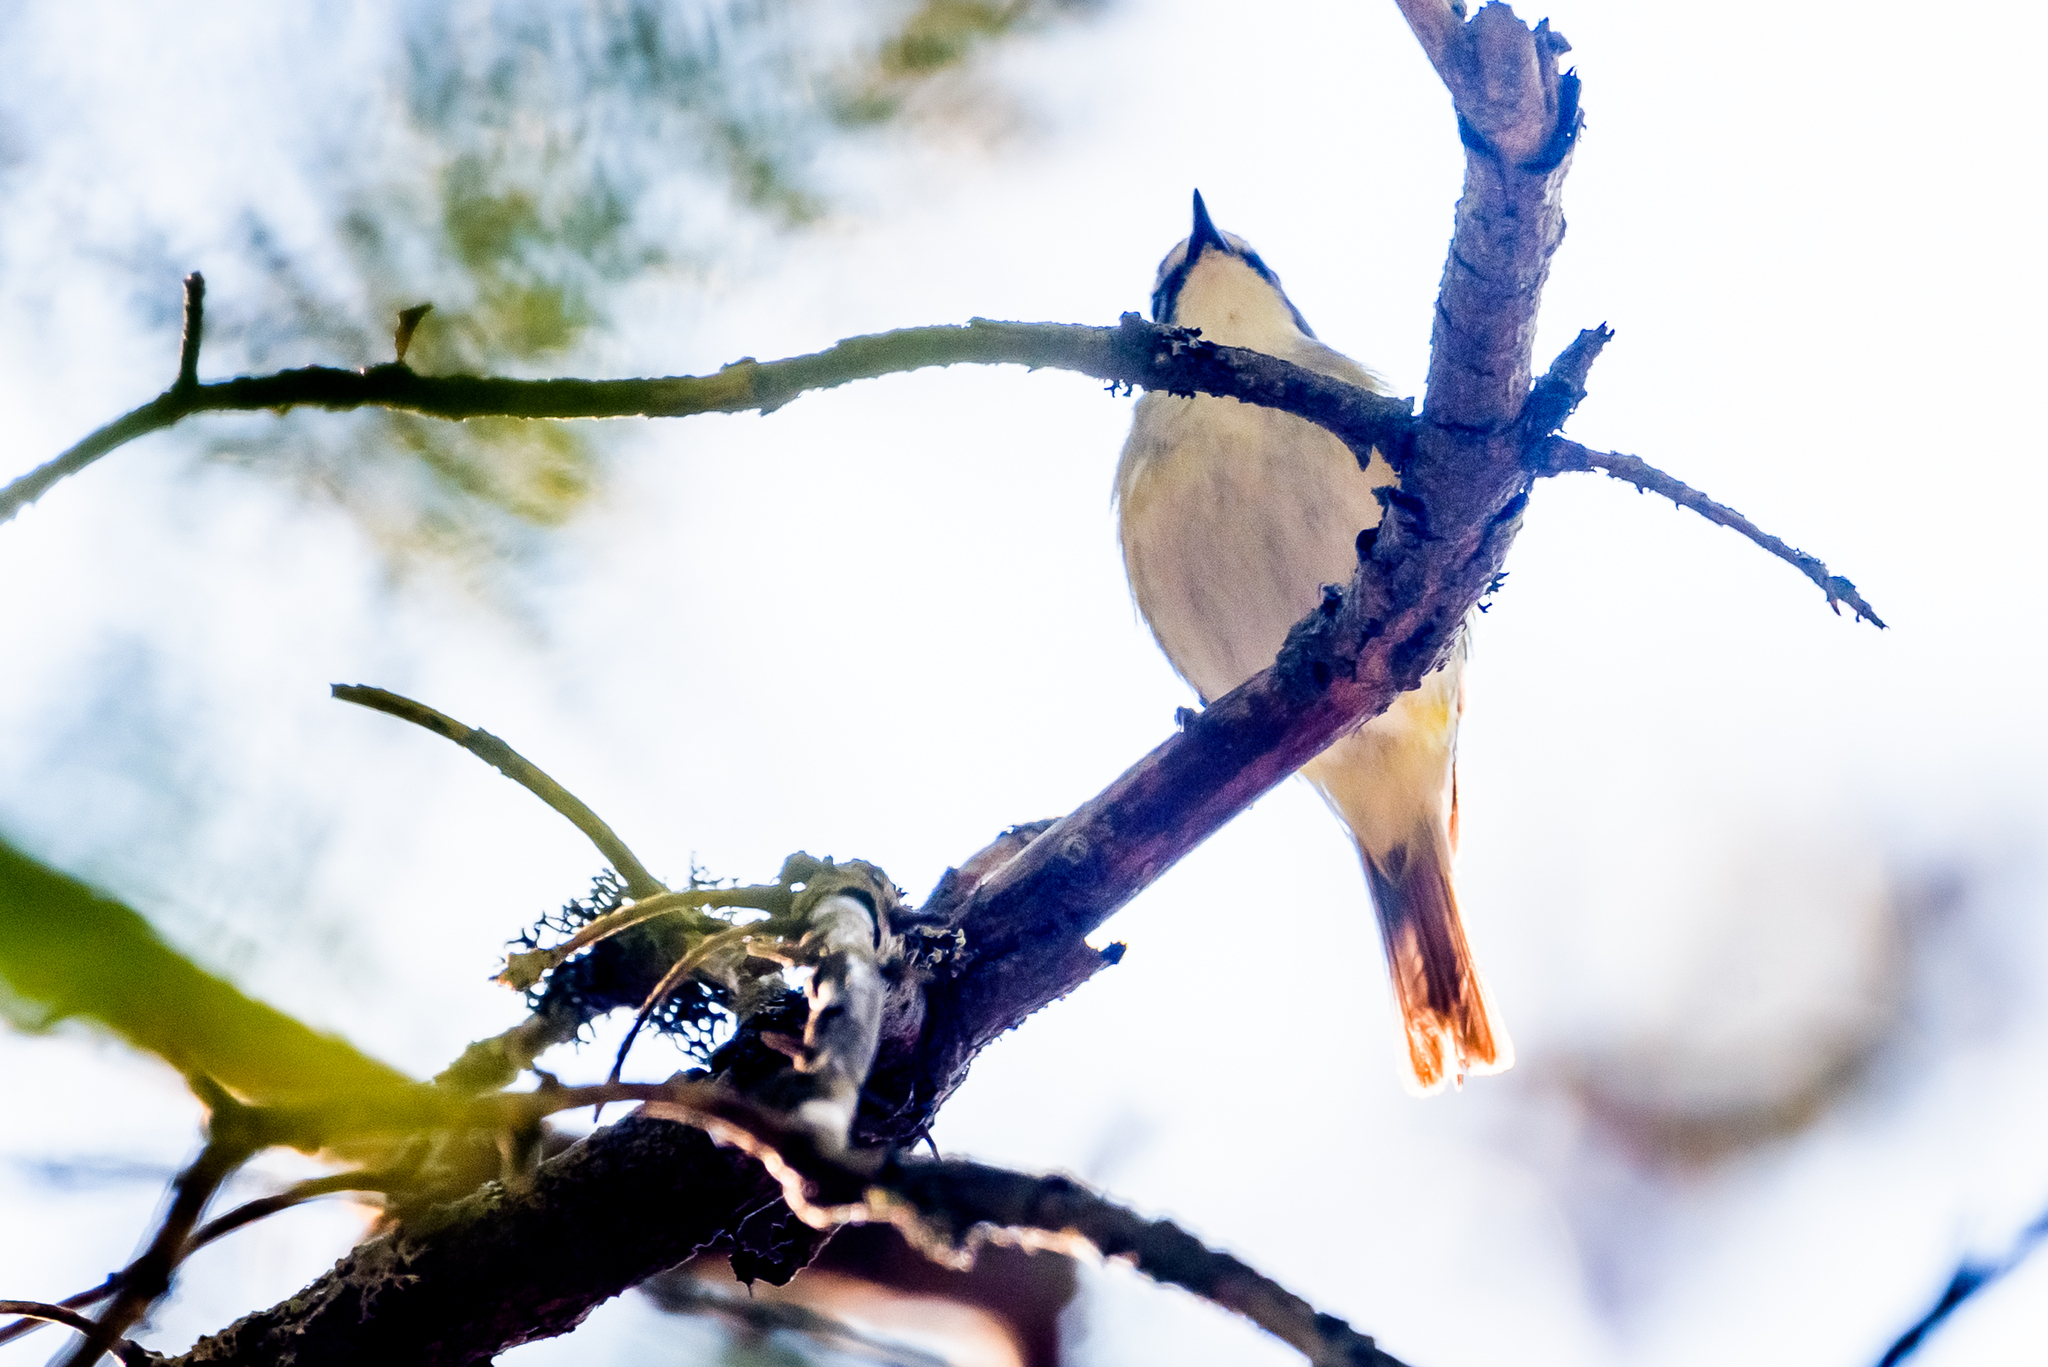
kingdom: Animalia
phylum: Chordata
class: Aves
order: Passeriformes
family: Vireonidae
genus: Vireo
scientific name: Vireo solitarius
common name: Blue-headed vireo
